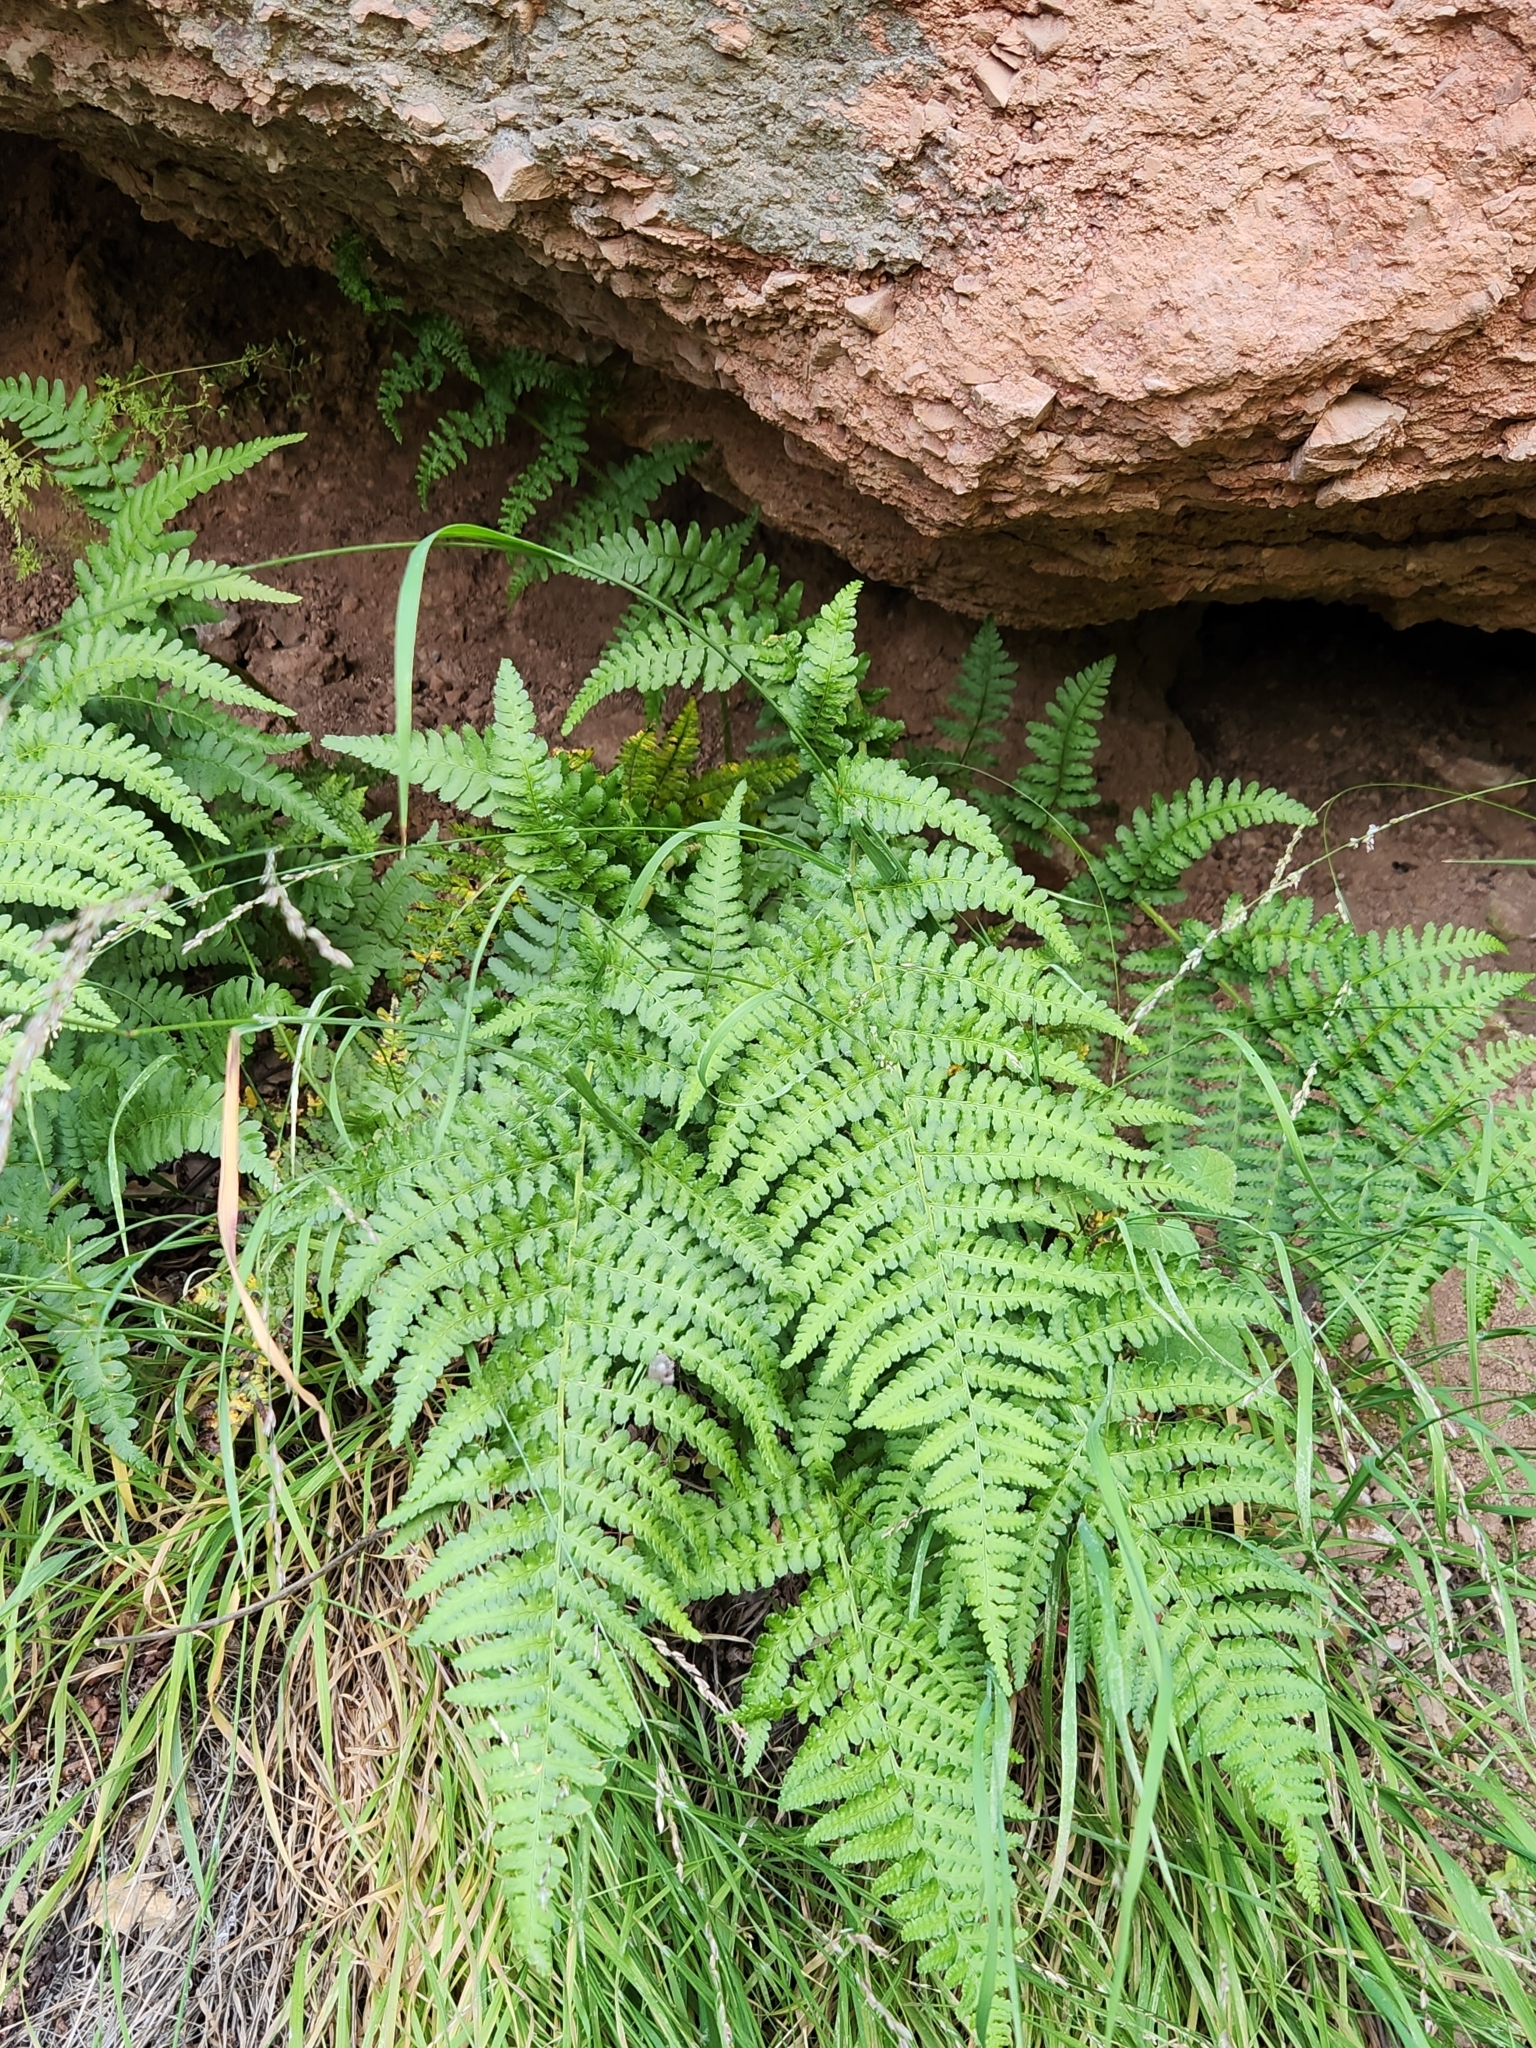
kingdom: Plantae
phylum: Tracheophyta
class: Polypodiopsida
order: Polypodiales
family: Dryopteridaceae
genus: Dryopteris
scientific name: Dryopteris arguta
